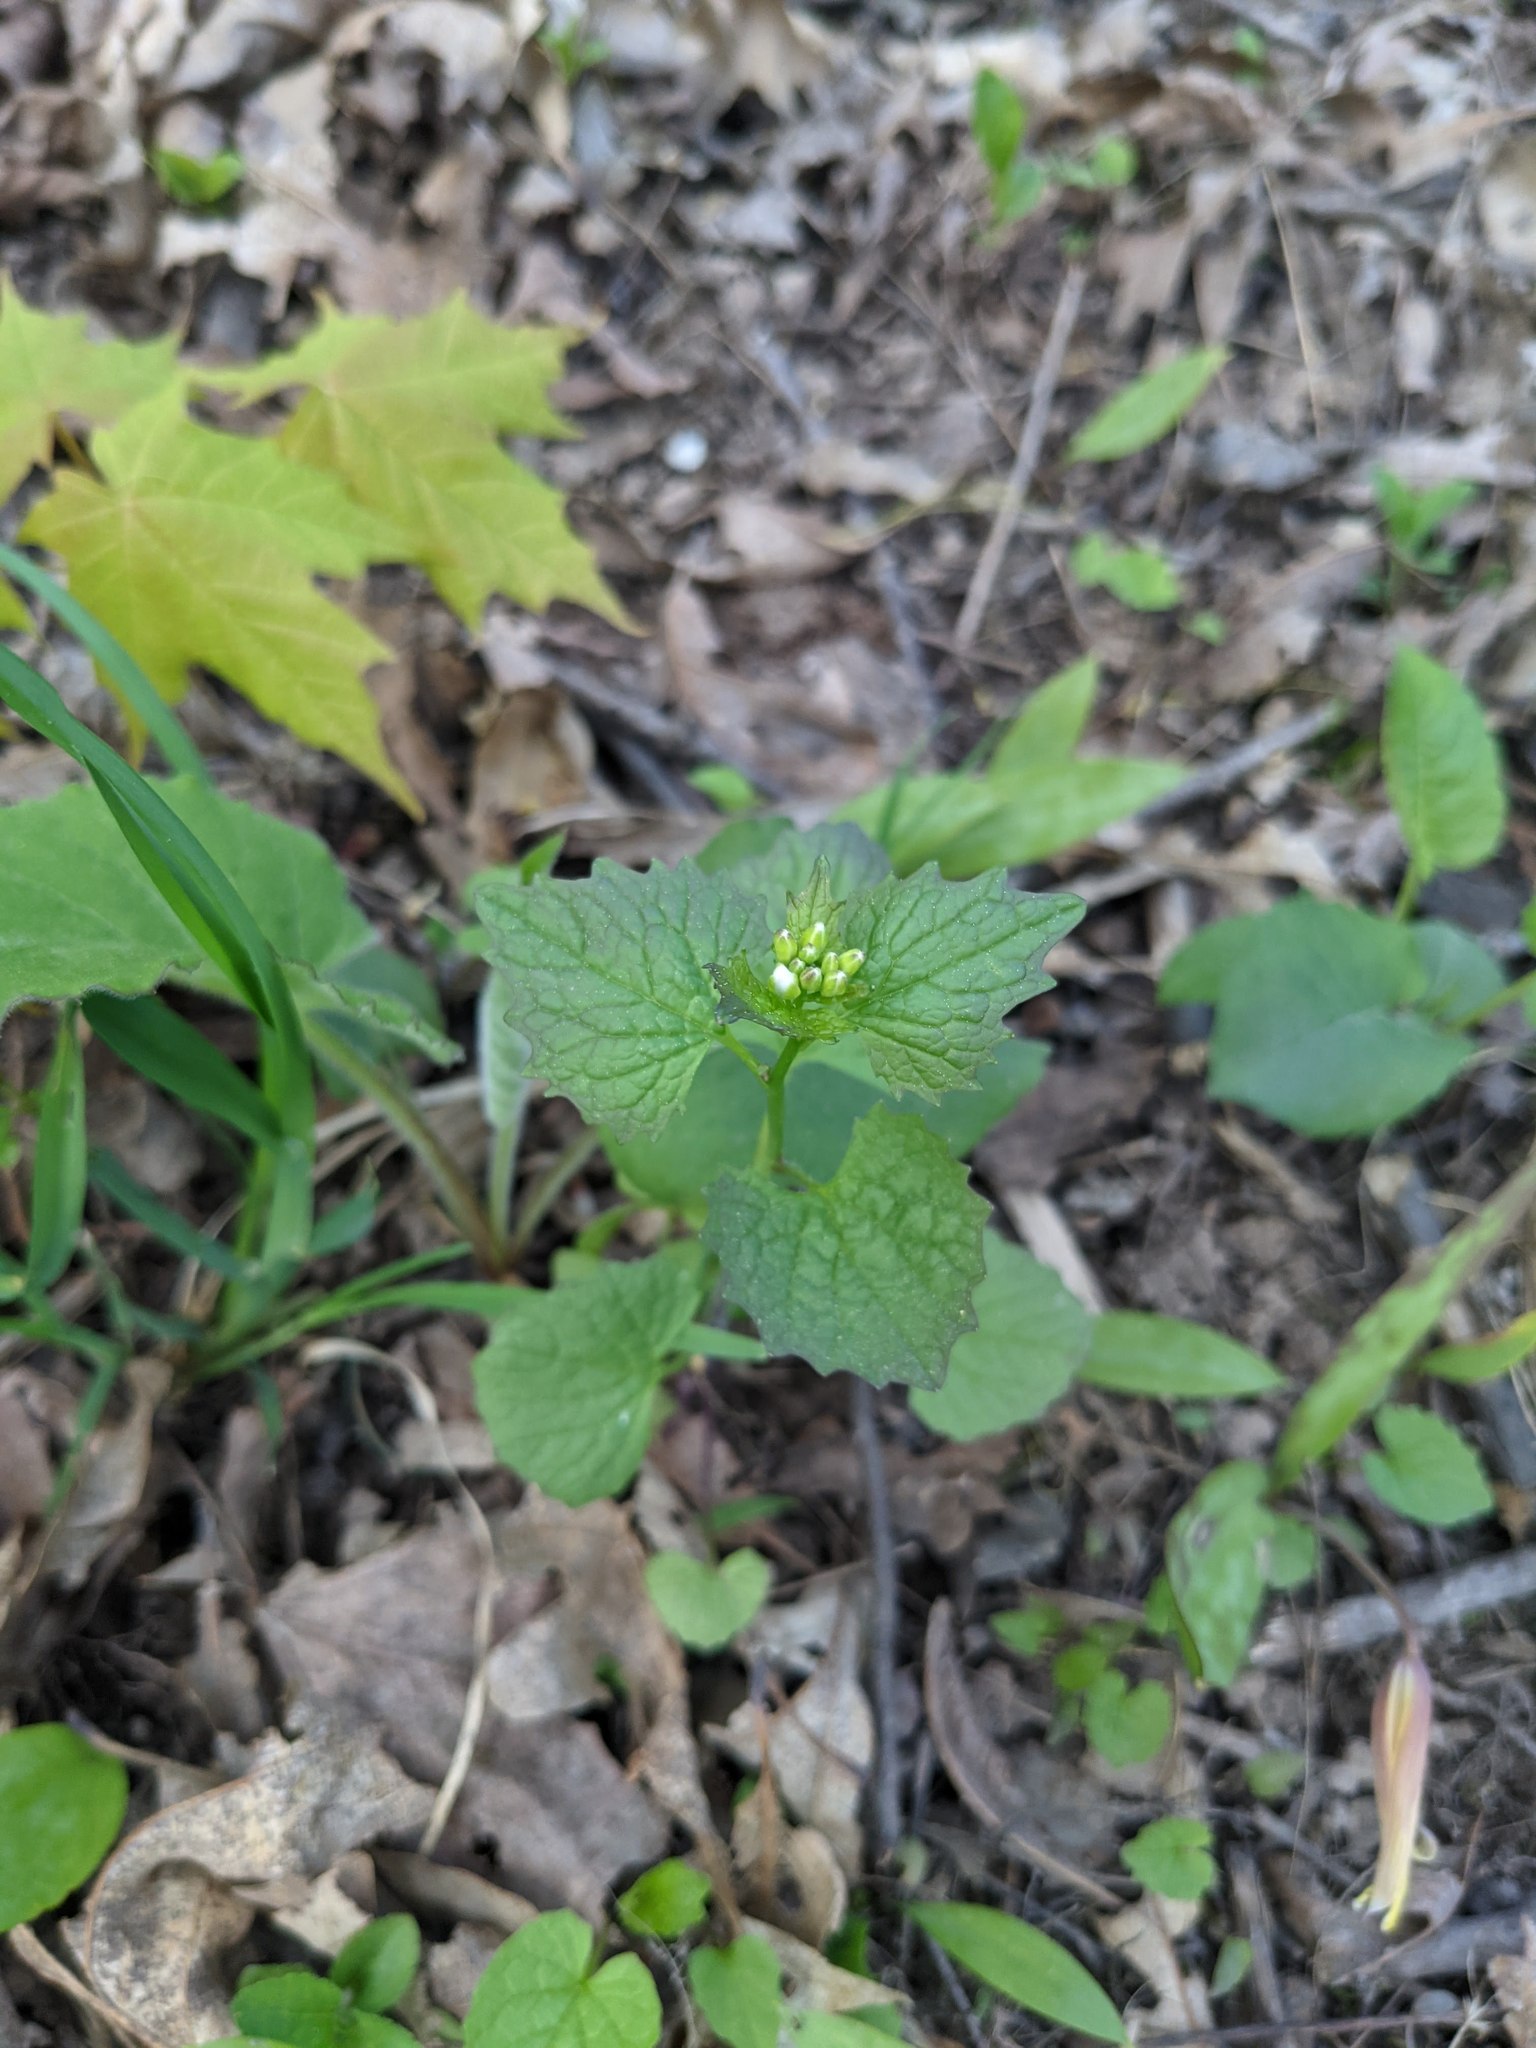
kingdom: Plantae
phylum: Tracheophyta
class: Magnoliopsida
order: Brassicales
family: Brassicaceae
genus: Alliaria
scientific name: Alliaria petiolata
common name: Garlic mustard
